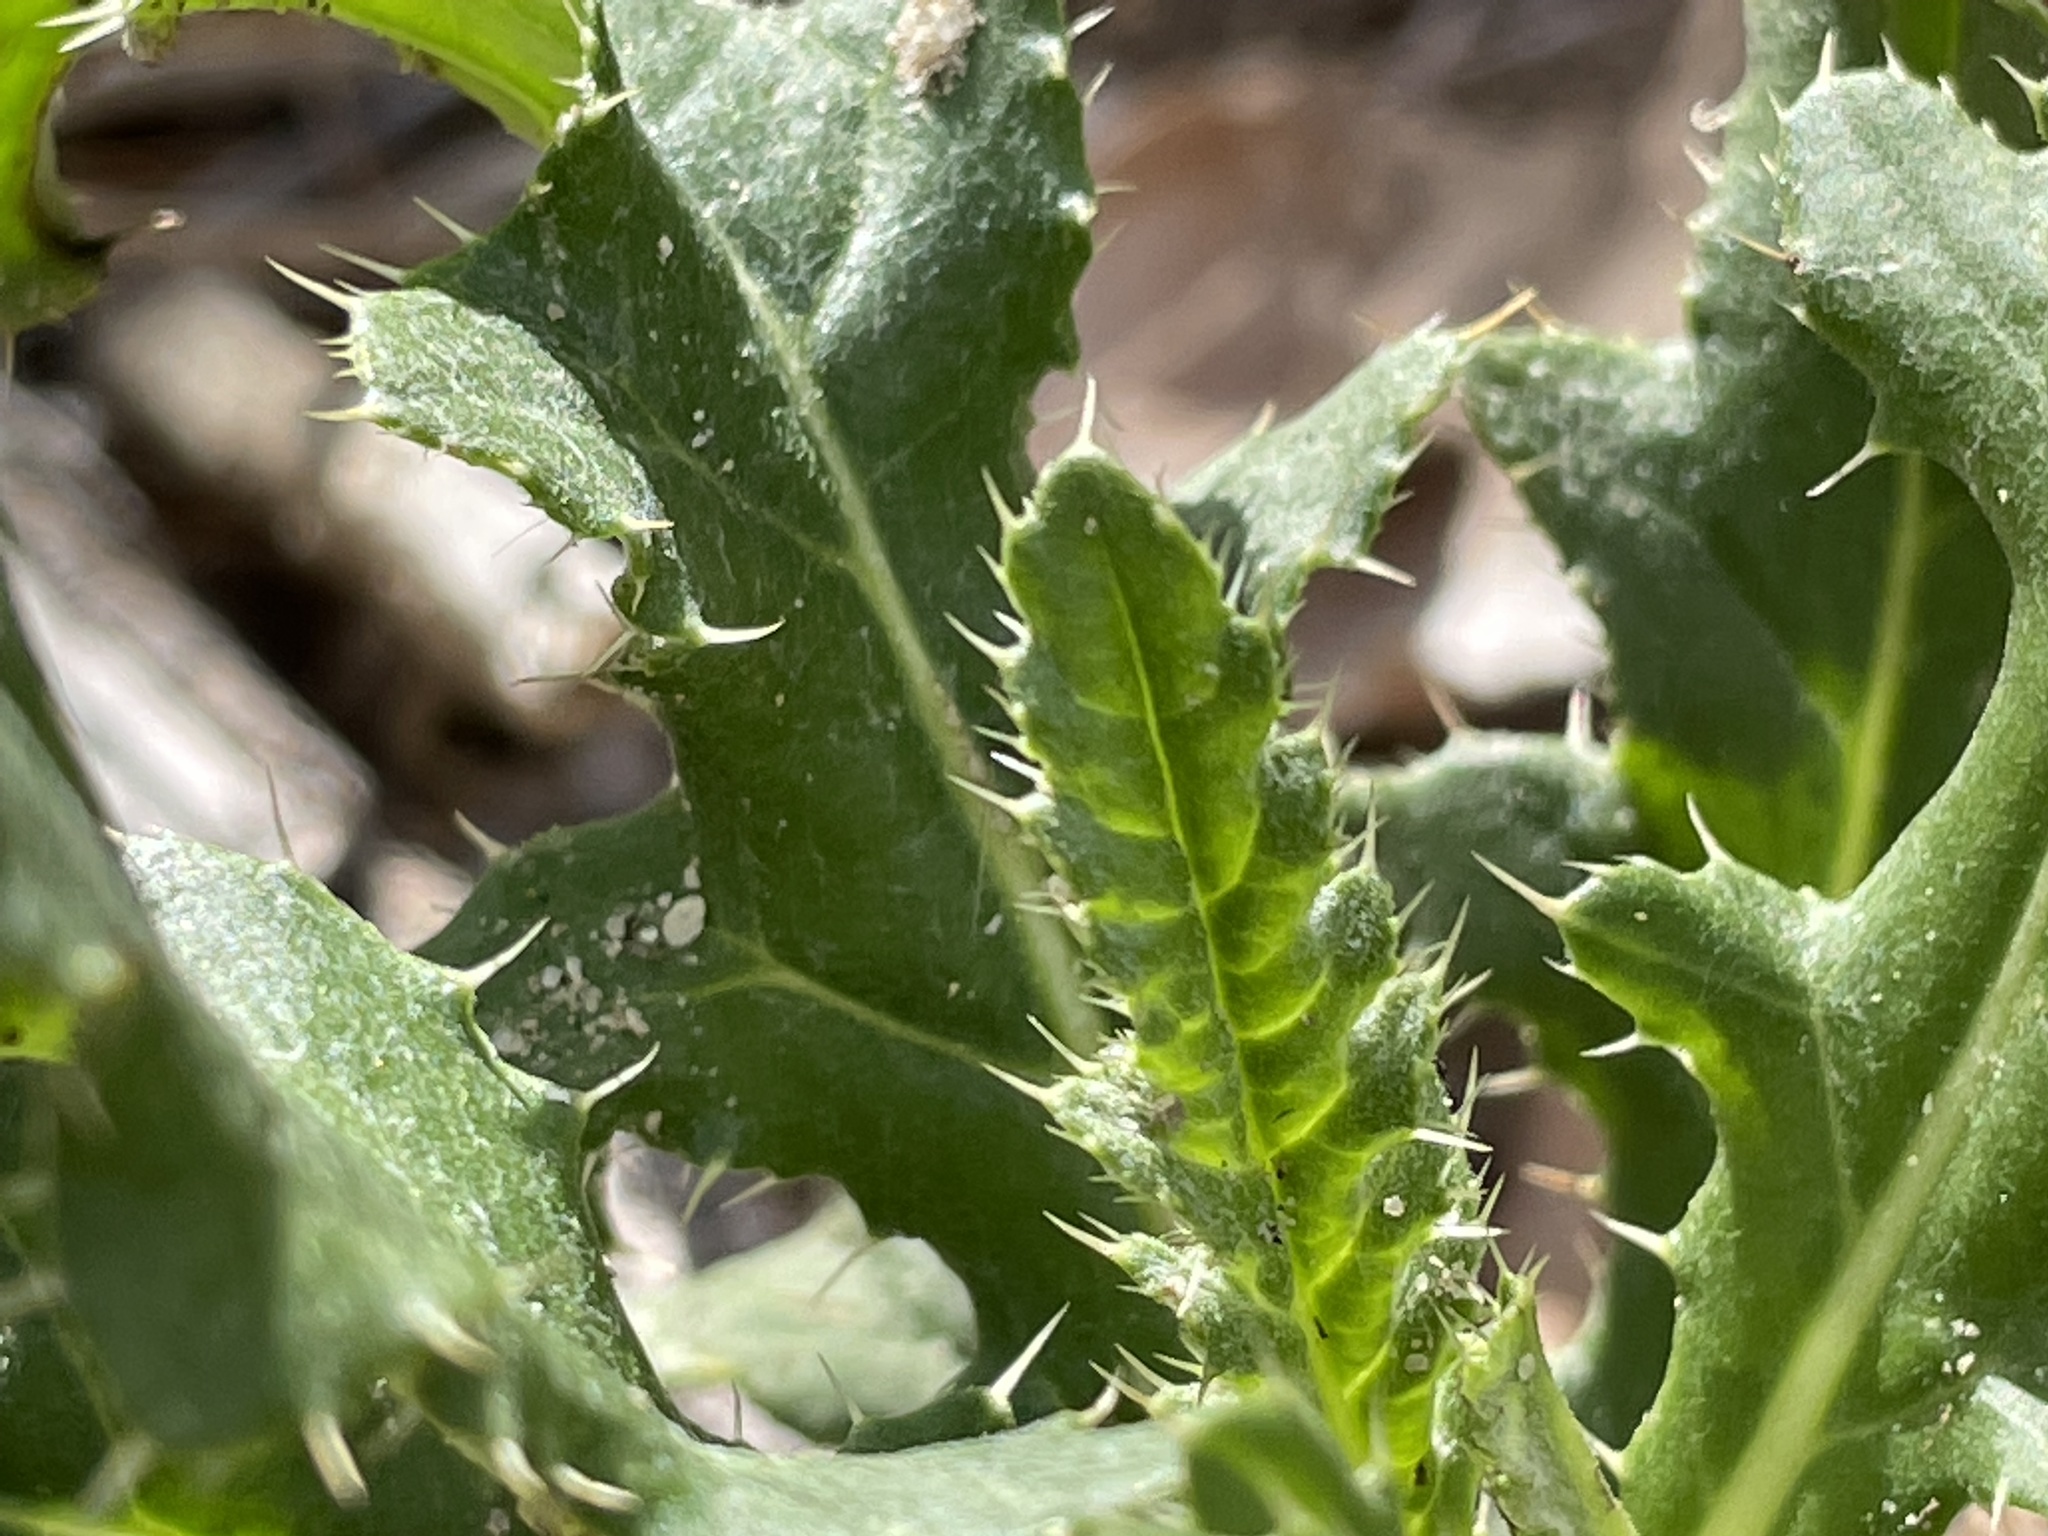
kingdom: Plantae
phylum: Tracheophyta
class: Magnoliopsida
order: Asterales
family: Asteraceae
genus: Cirsium
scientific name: Cirsium arvense
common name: Creeping thistle
